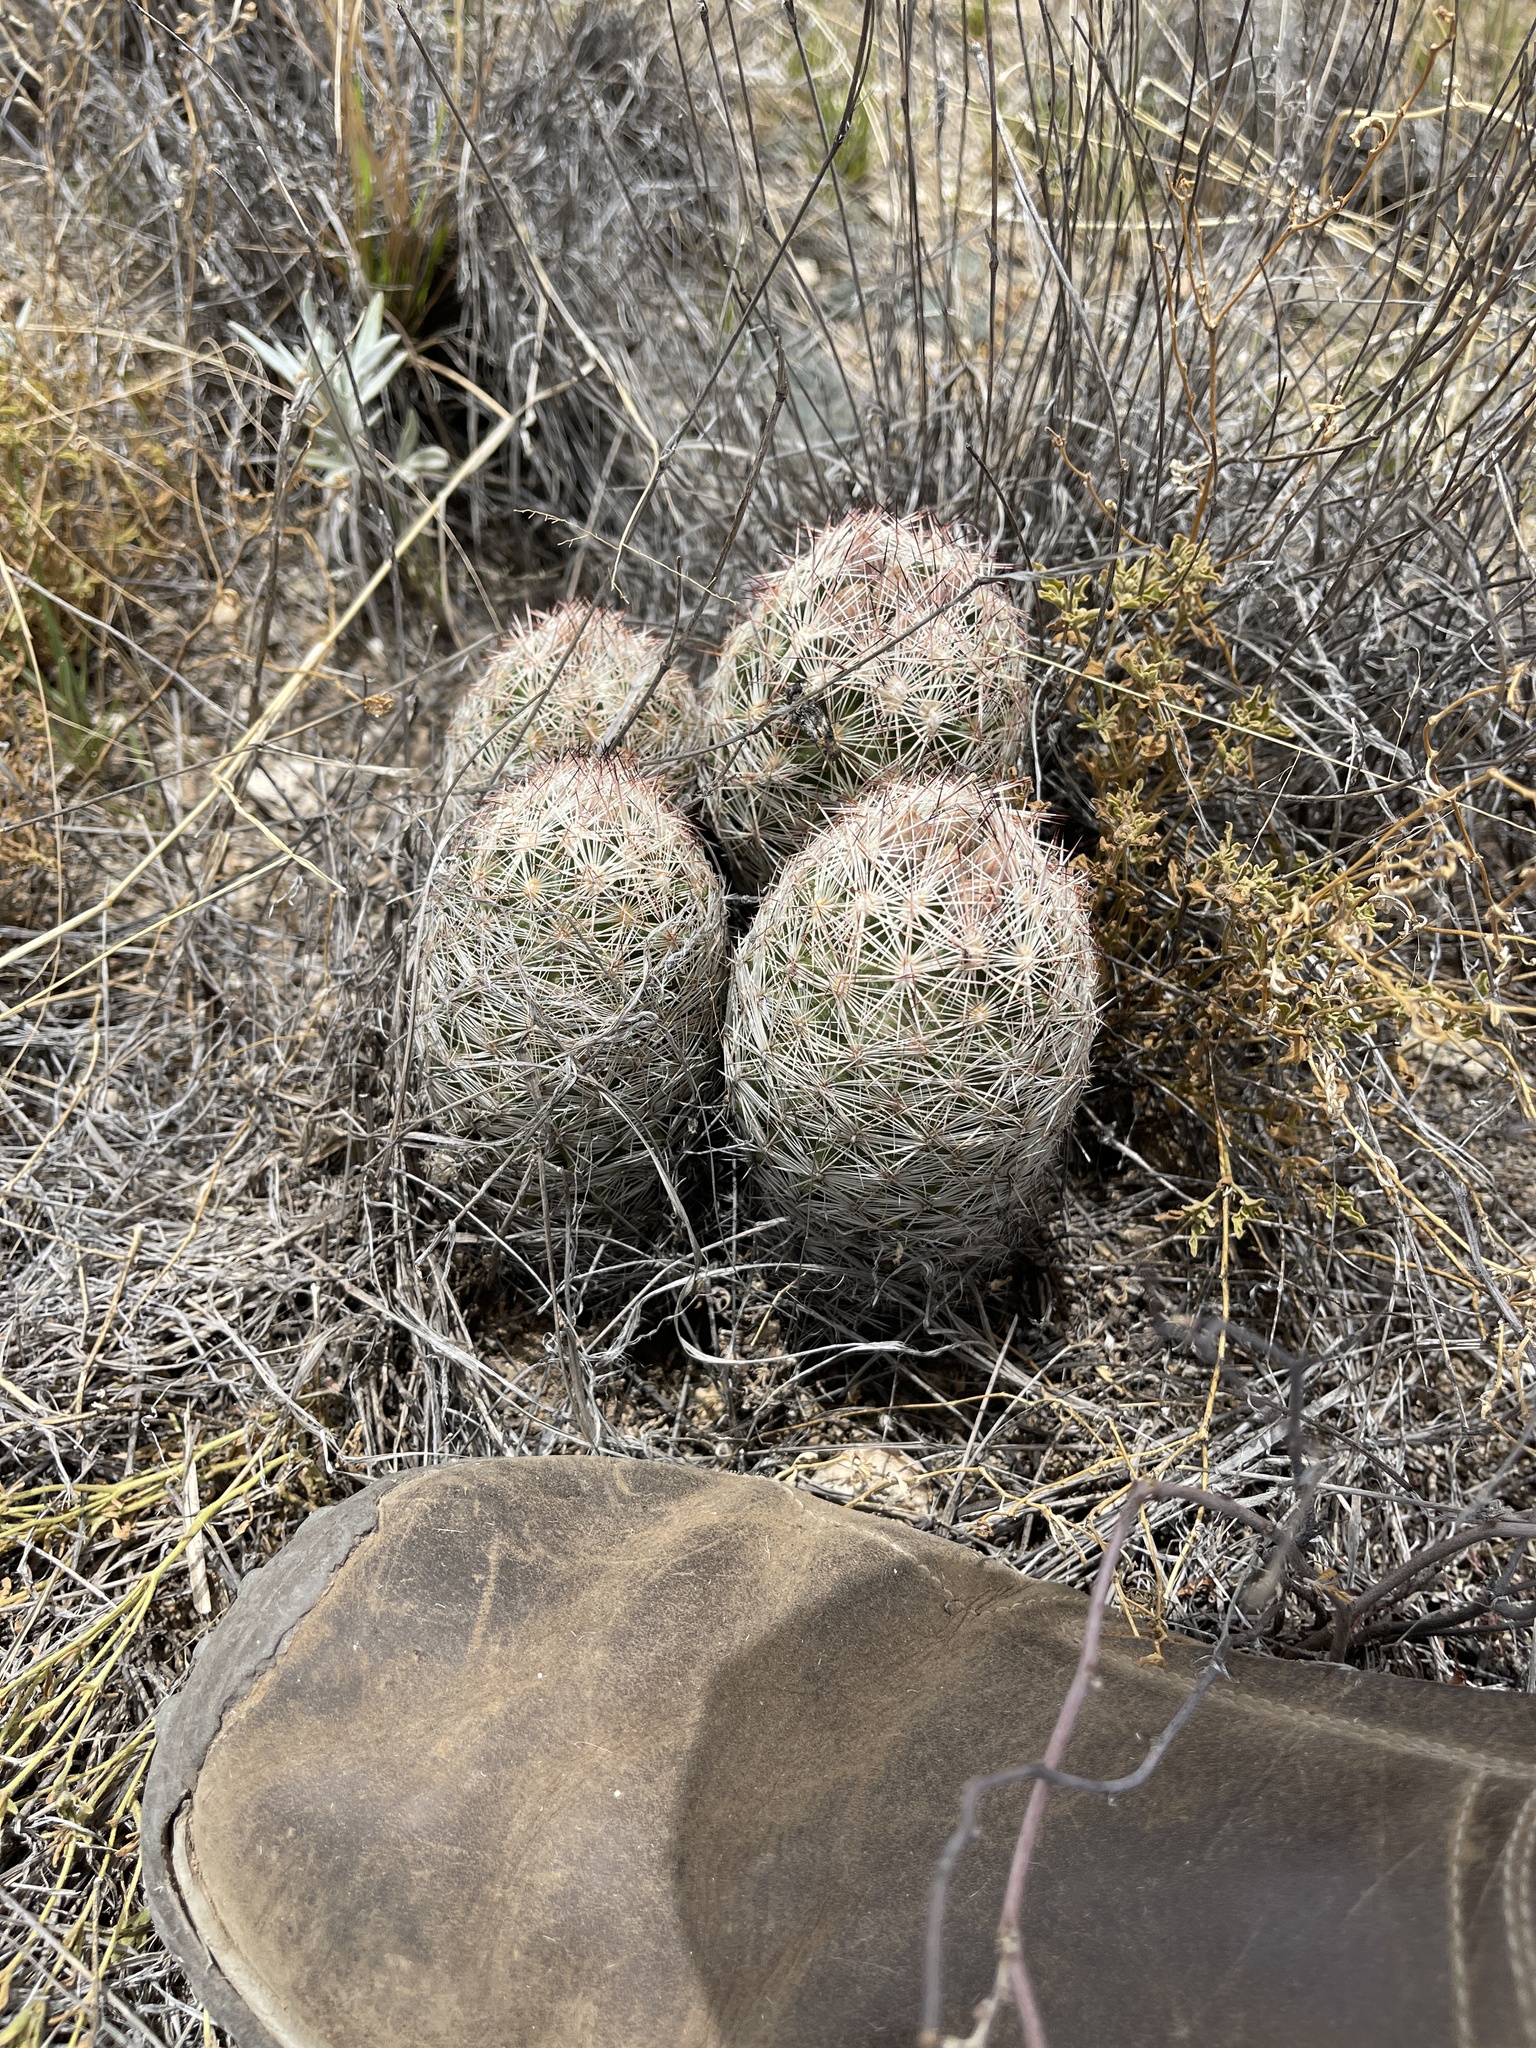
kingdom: Plantae
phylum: Tracheophyta
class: Magnoliopsida
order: Caryophyllales
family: Cactaceae
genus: Pelecyphora
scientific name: Pelecyphora vivipara
